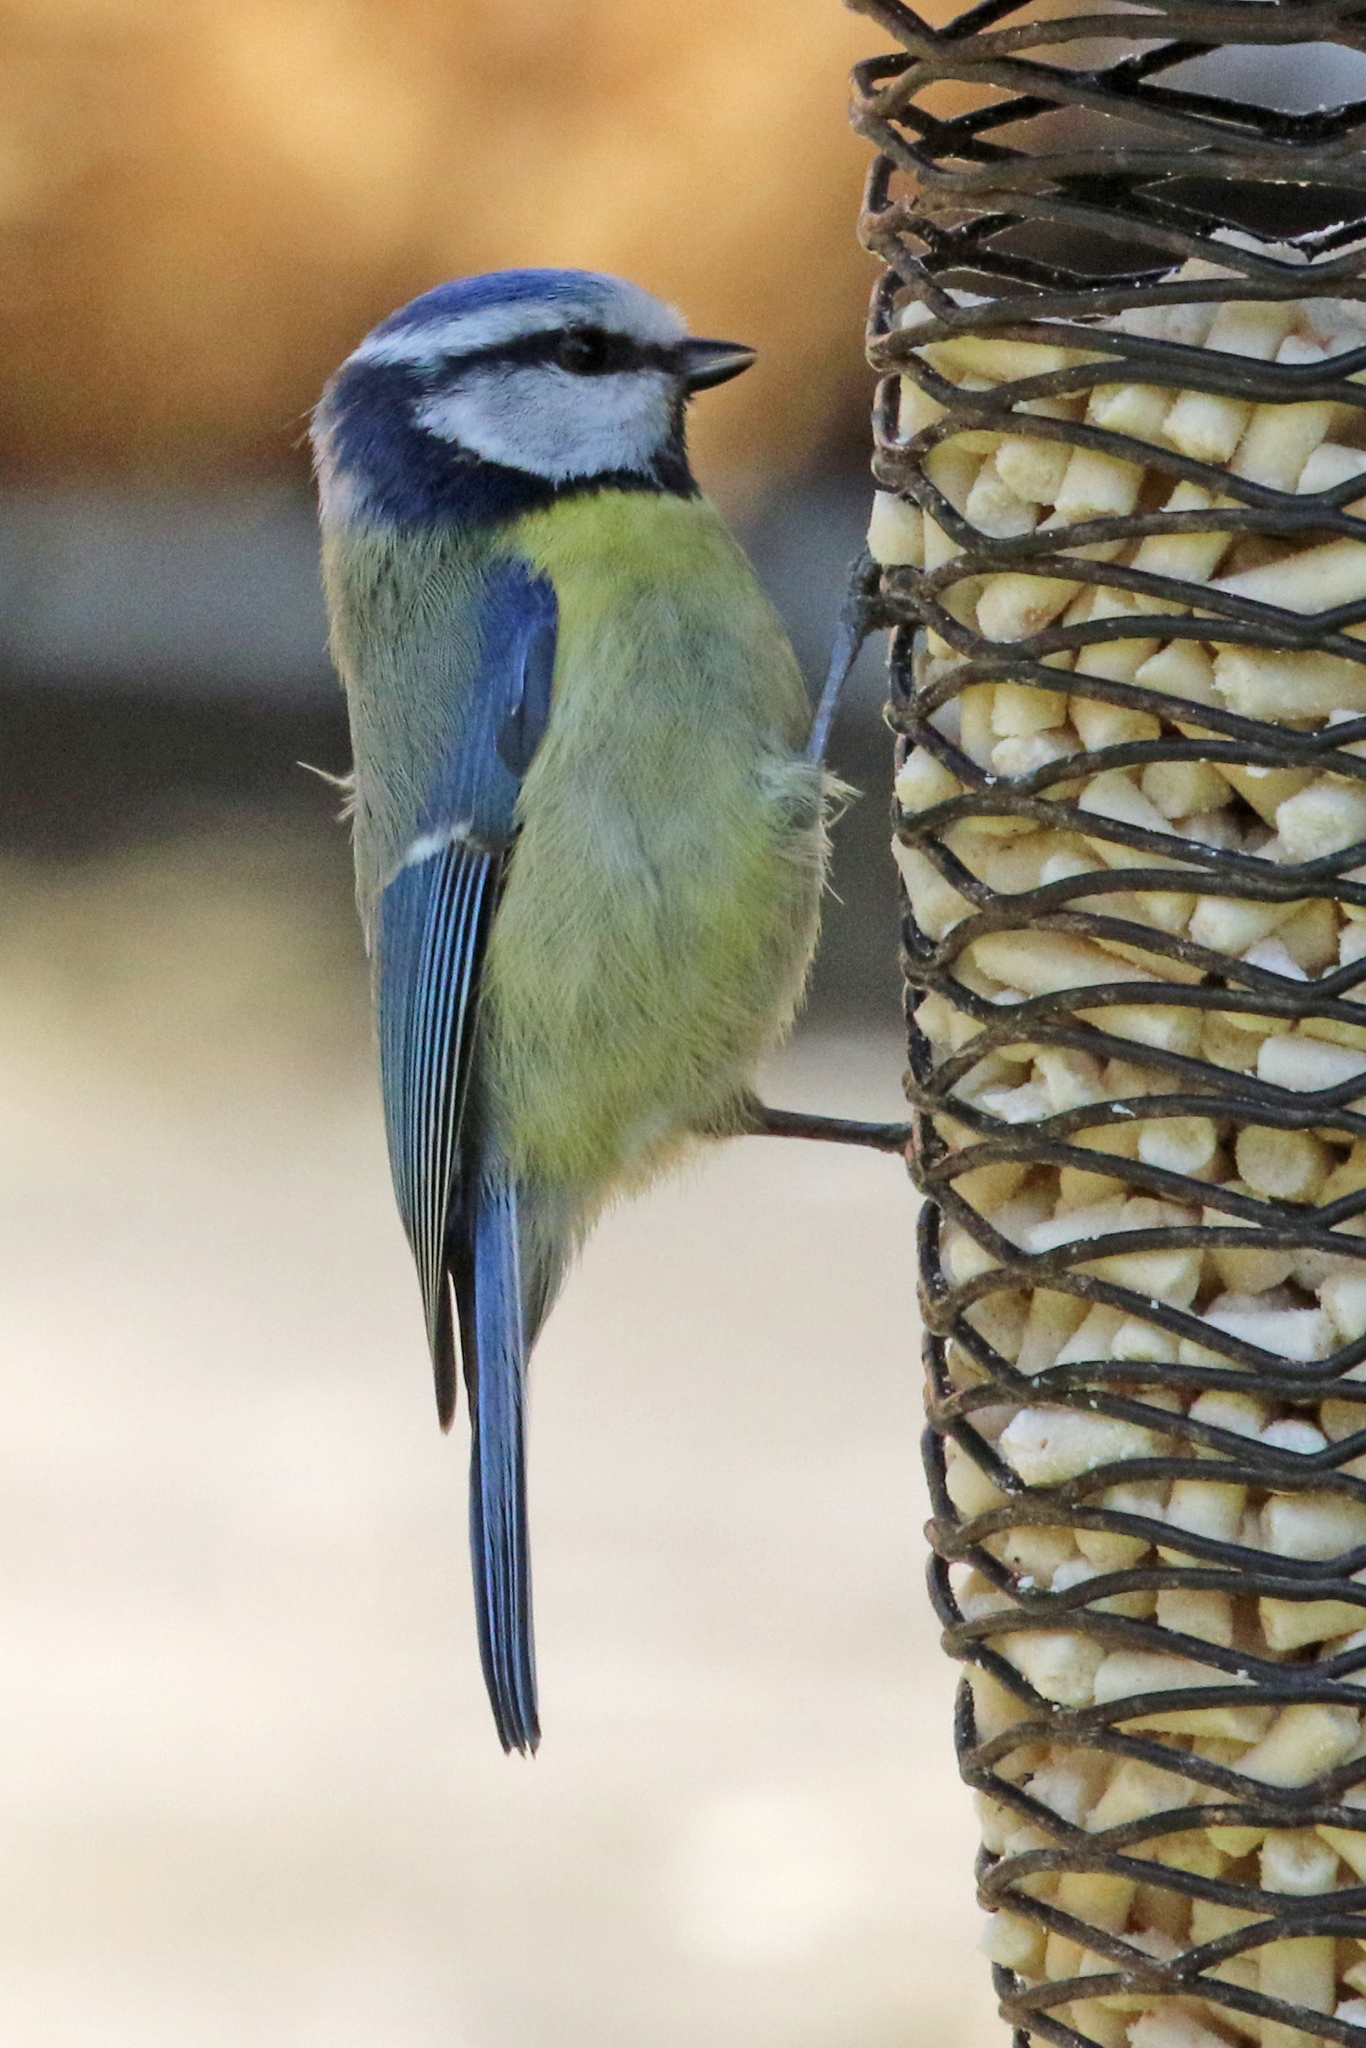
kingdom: Animalia
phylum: Chordata
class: Aves
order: Passeriformes
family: Paridae
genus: Cyanistes
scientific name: Cyanistes caeruleus
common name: Eurasian blue tit
